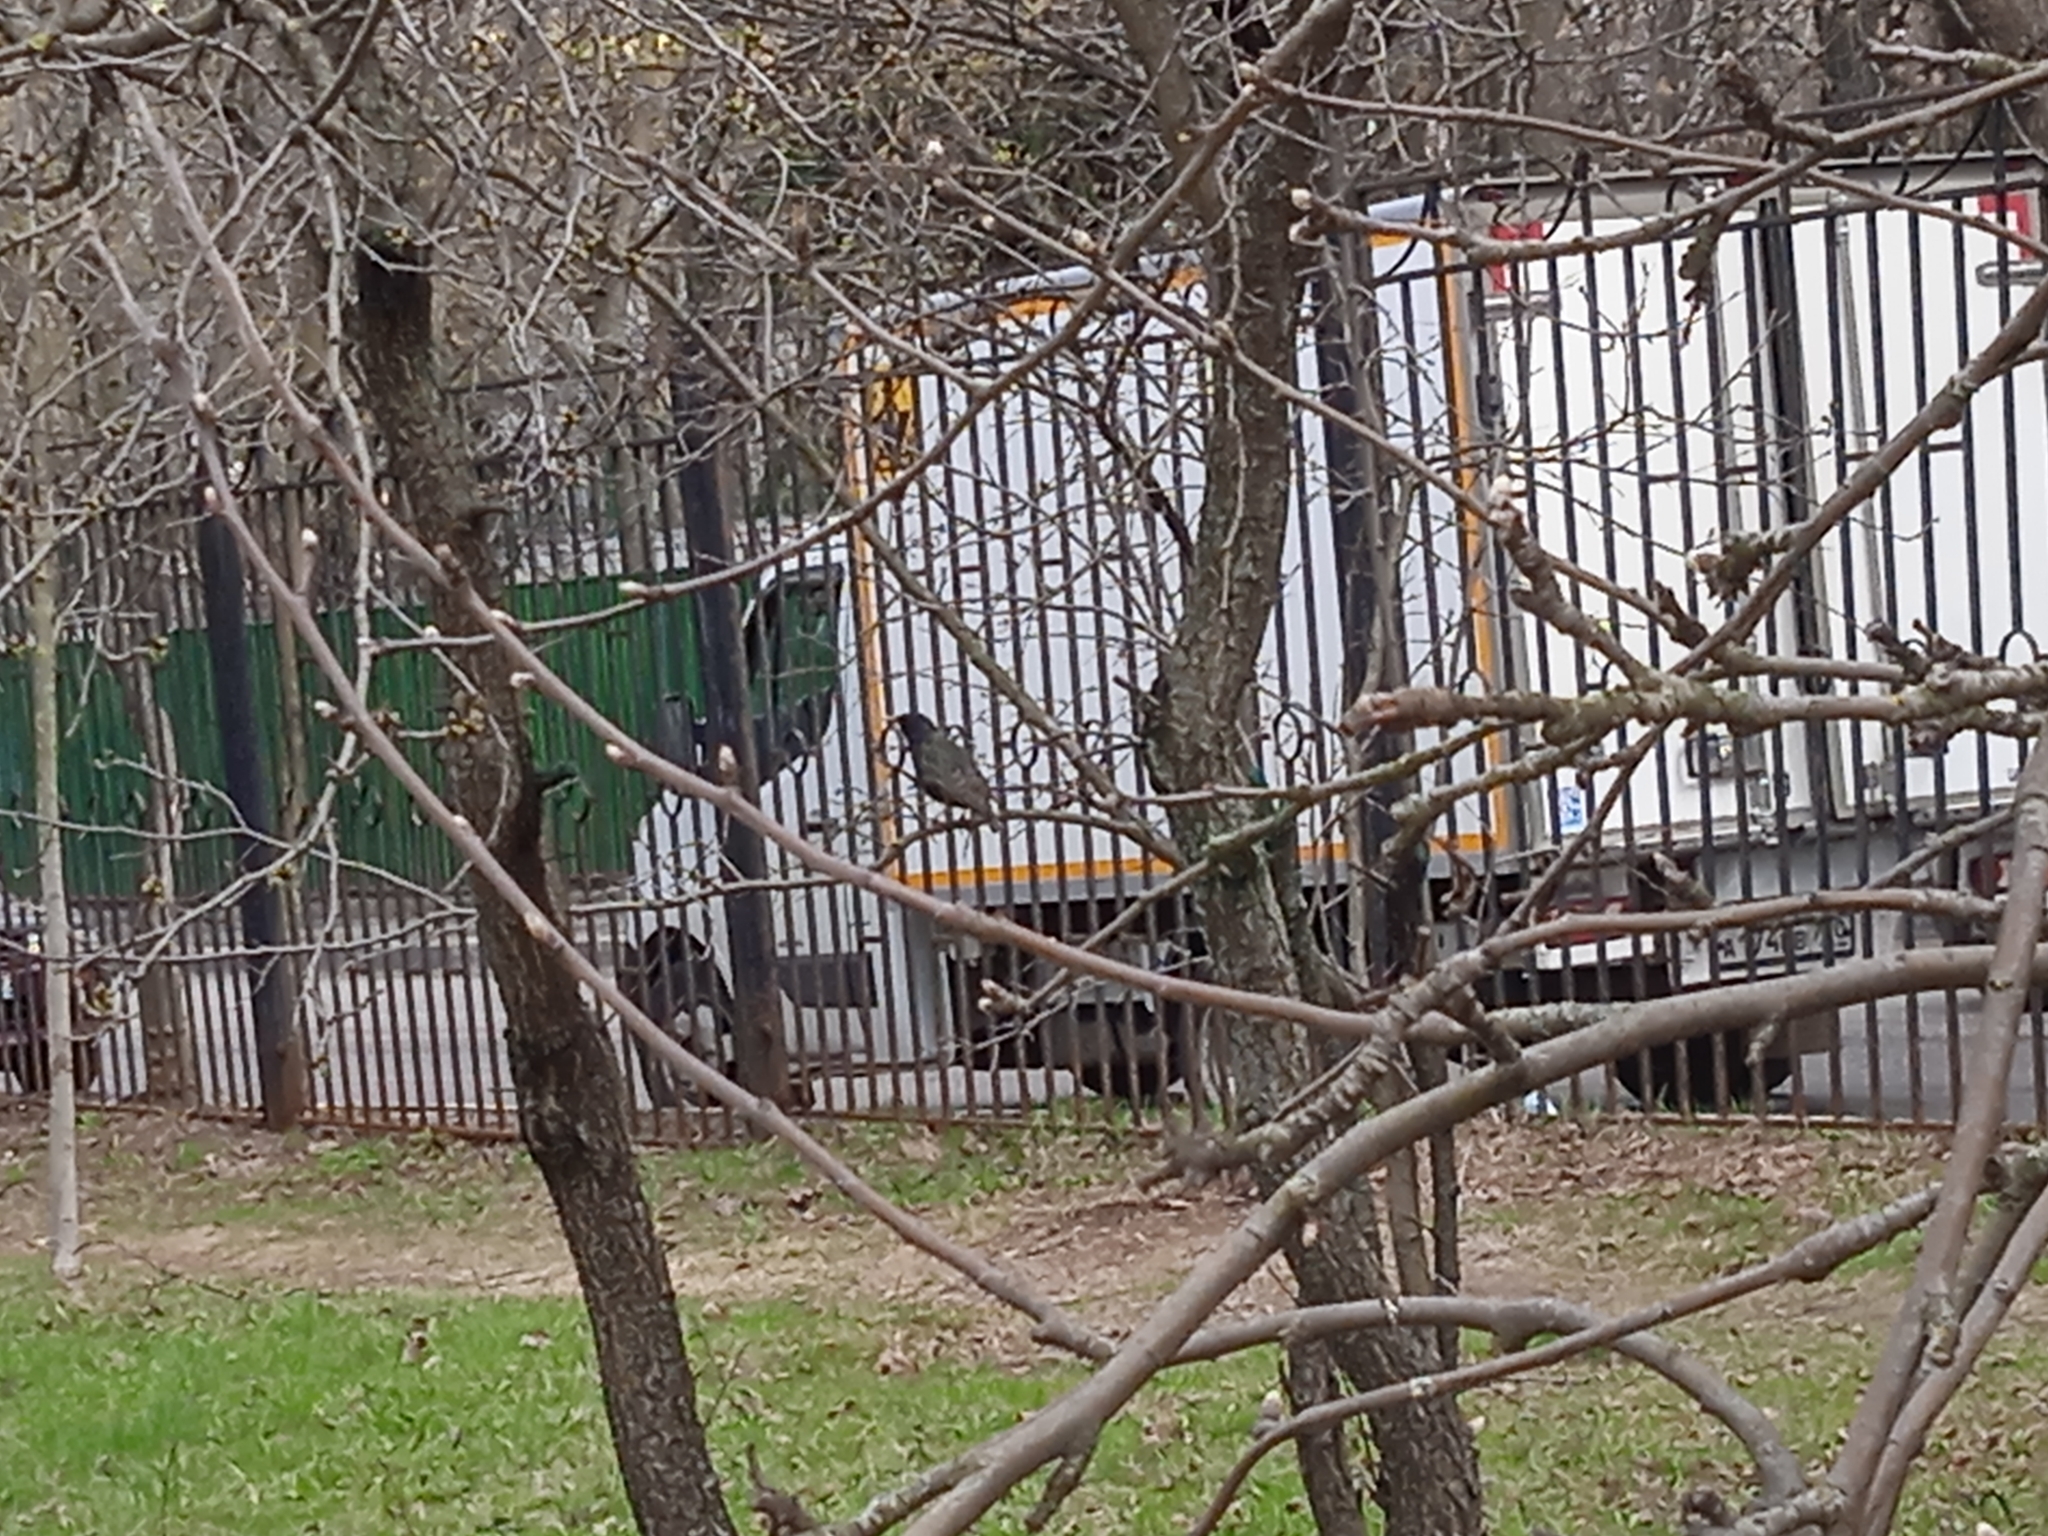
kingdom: Animalia
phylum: Chordata
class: Aves
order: Passeriformes
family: Sturnidae
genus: Sturnus
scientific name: Sturnus vulgaris
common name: Common starling
